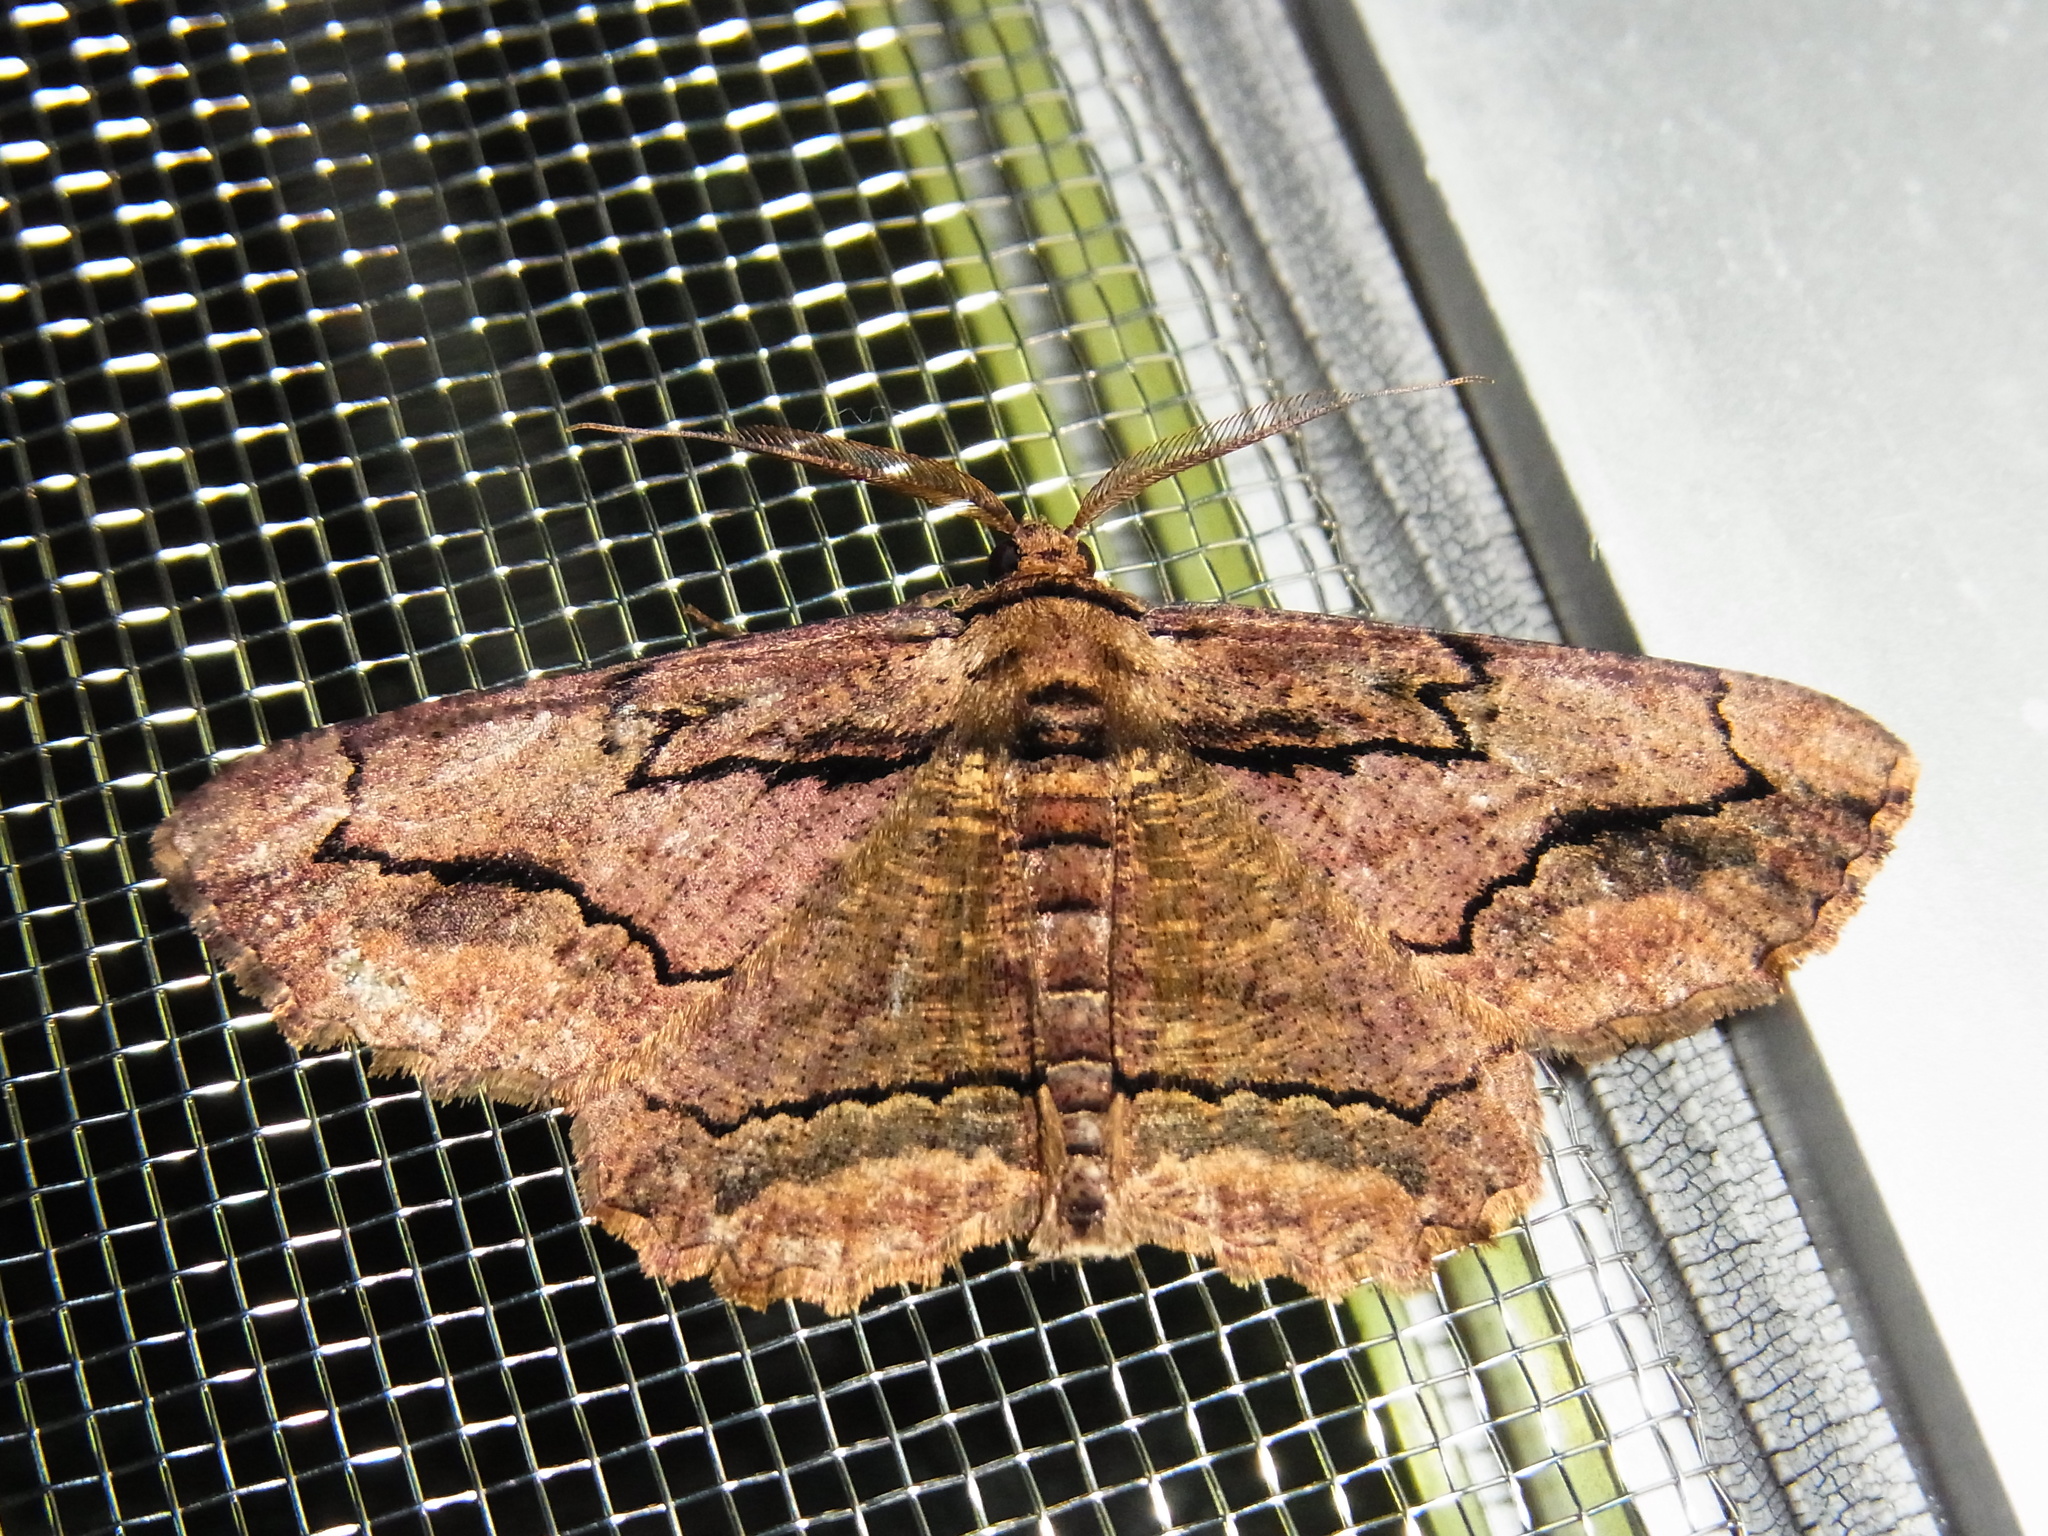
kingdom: Animalia
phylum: Arthropoda
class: Insecta
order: Lepidoptera
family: Geometridae
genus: Menophra
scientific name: Menophra senilis
